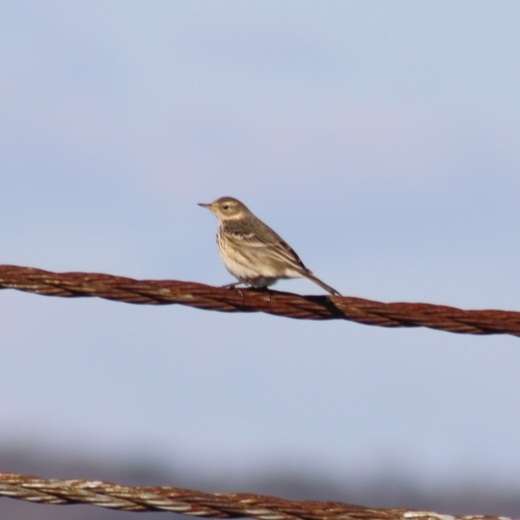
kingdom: Animalia
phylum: Chordata
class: Aves
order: Passeriformes
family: Motacillidae
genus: Anthus
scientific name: Anthus rubescens
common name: Buff-bellied pipit
